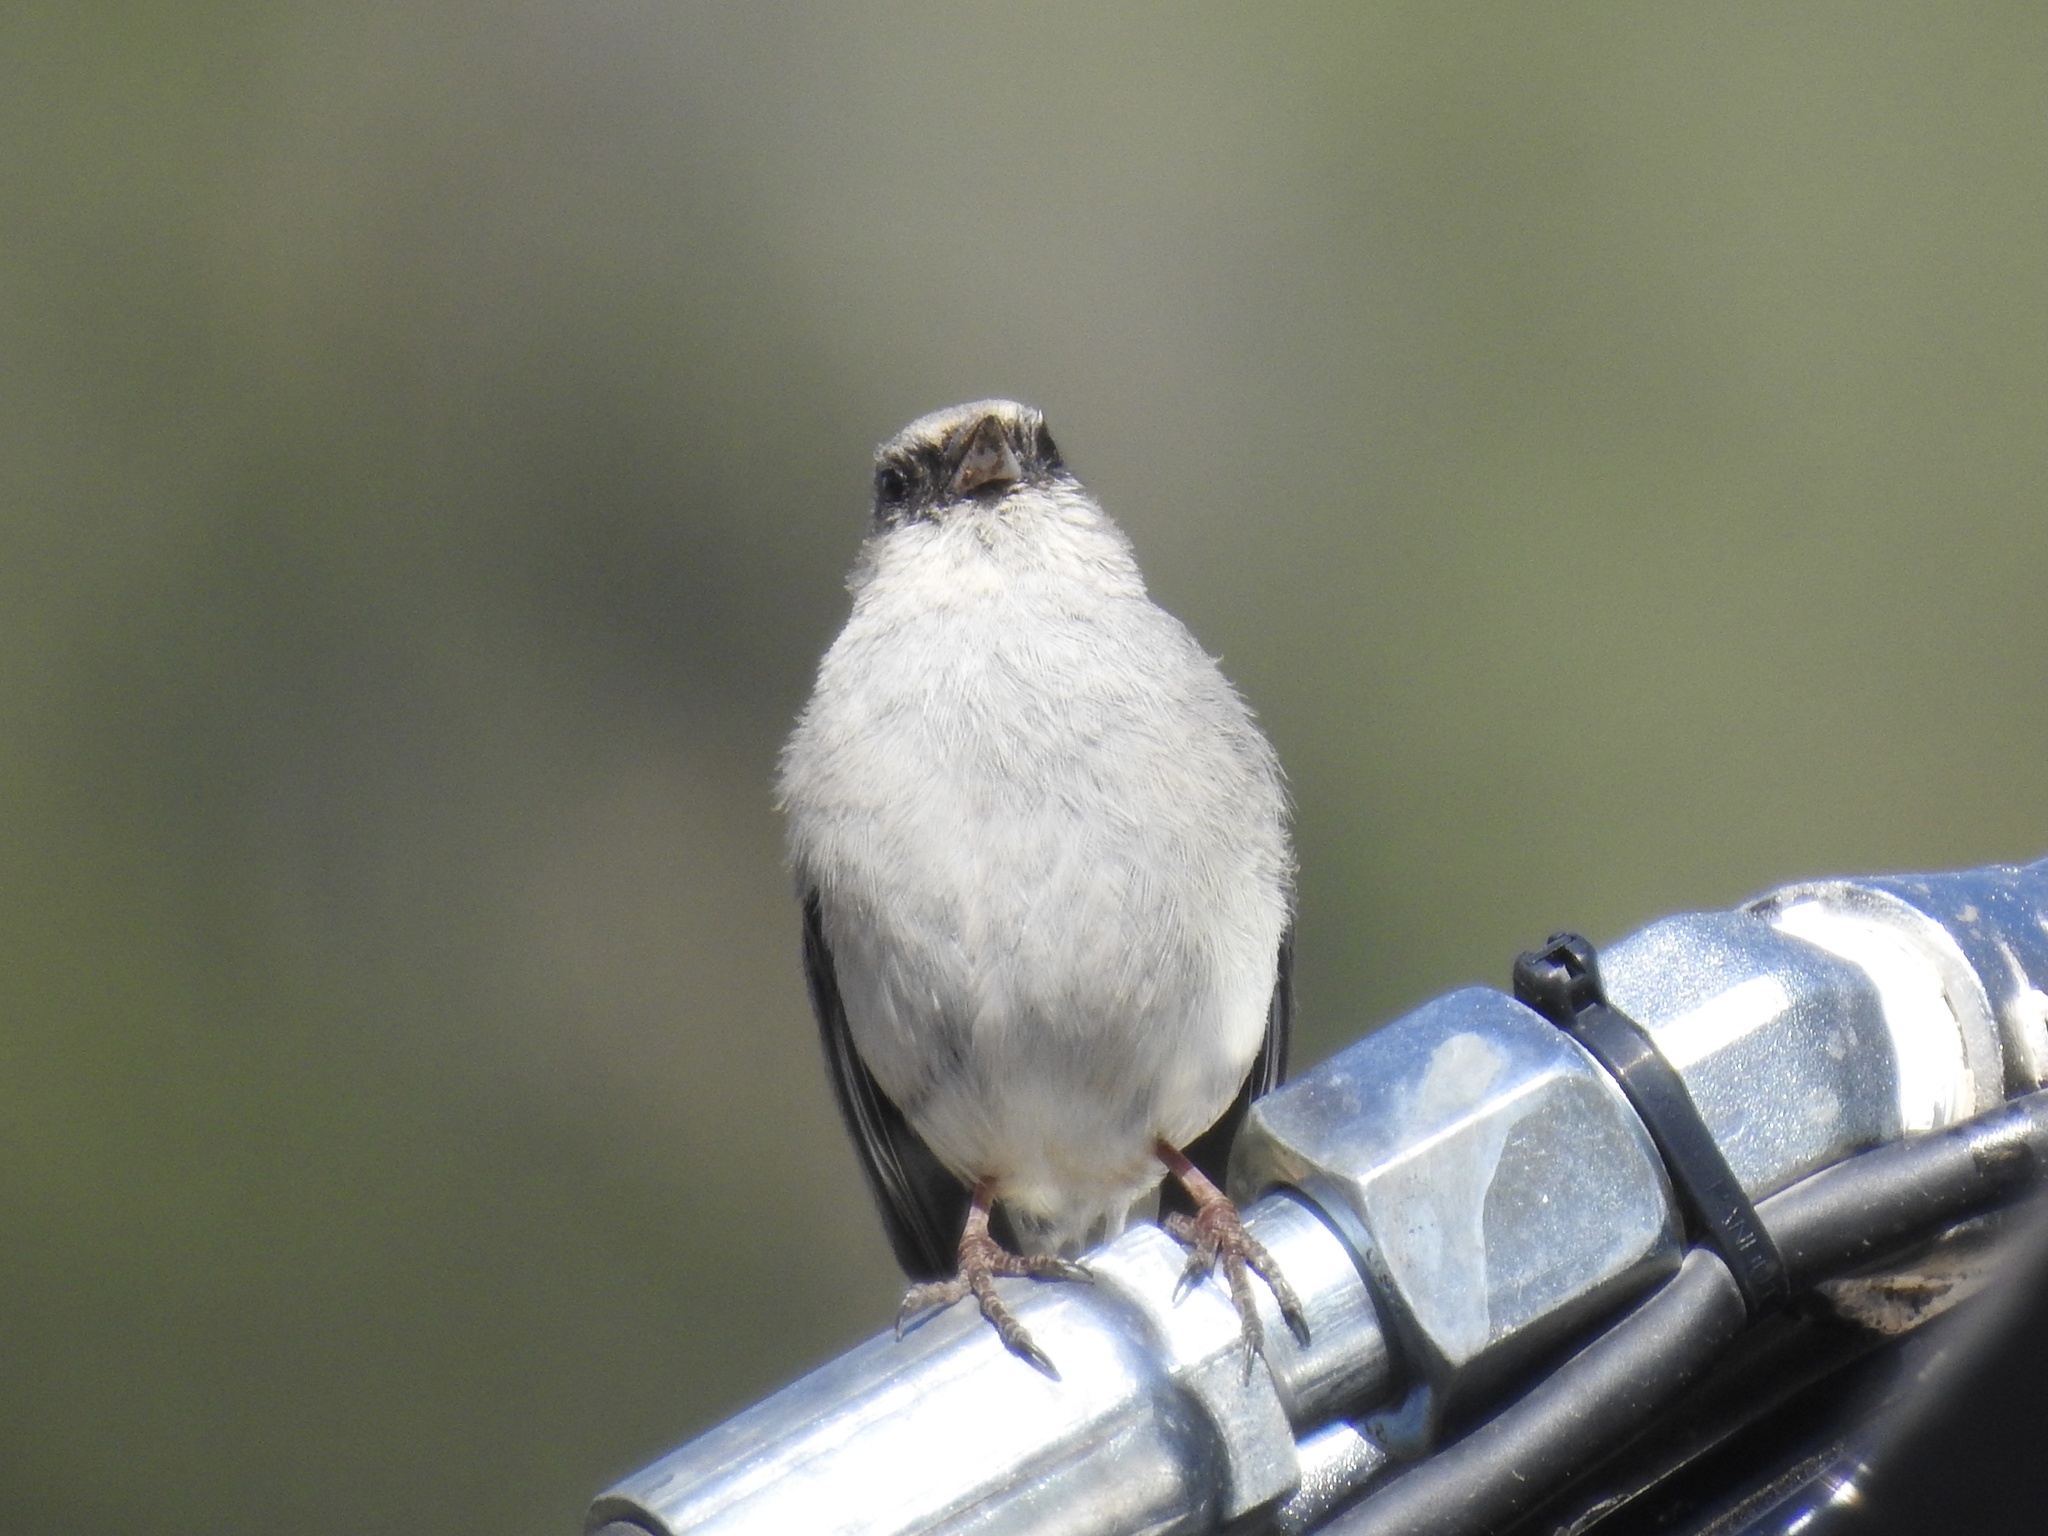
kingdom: Animalia
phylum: Chordata
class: Aves
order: Passeriformes
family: Passerellidae
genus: Junco
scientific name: Junco hyemalis
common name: Dark-eyed junco
